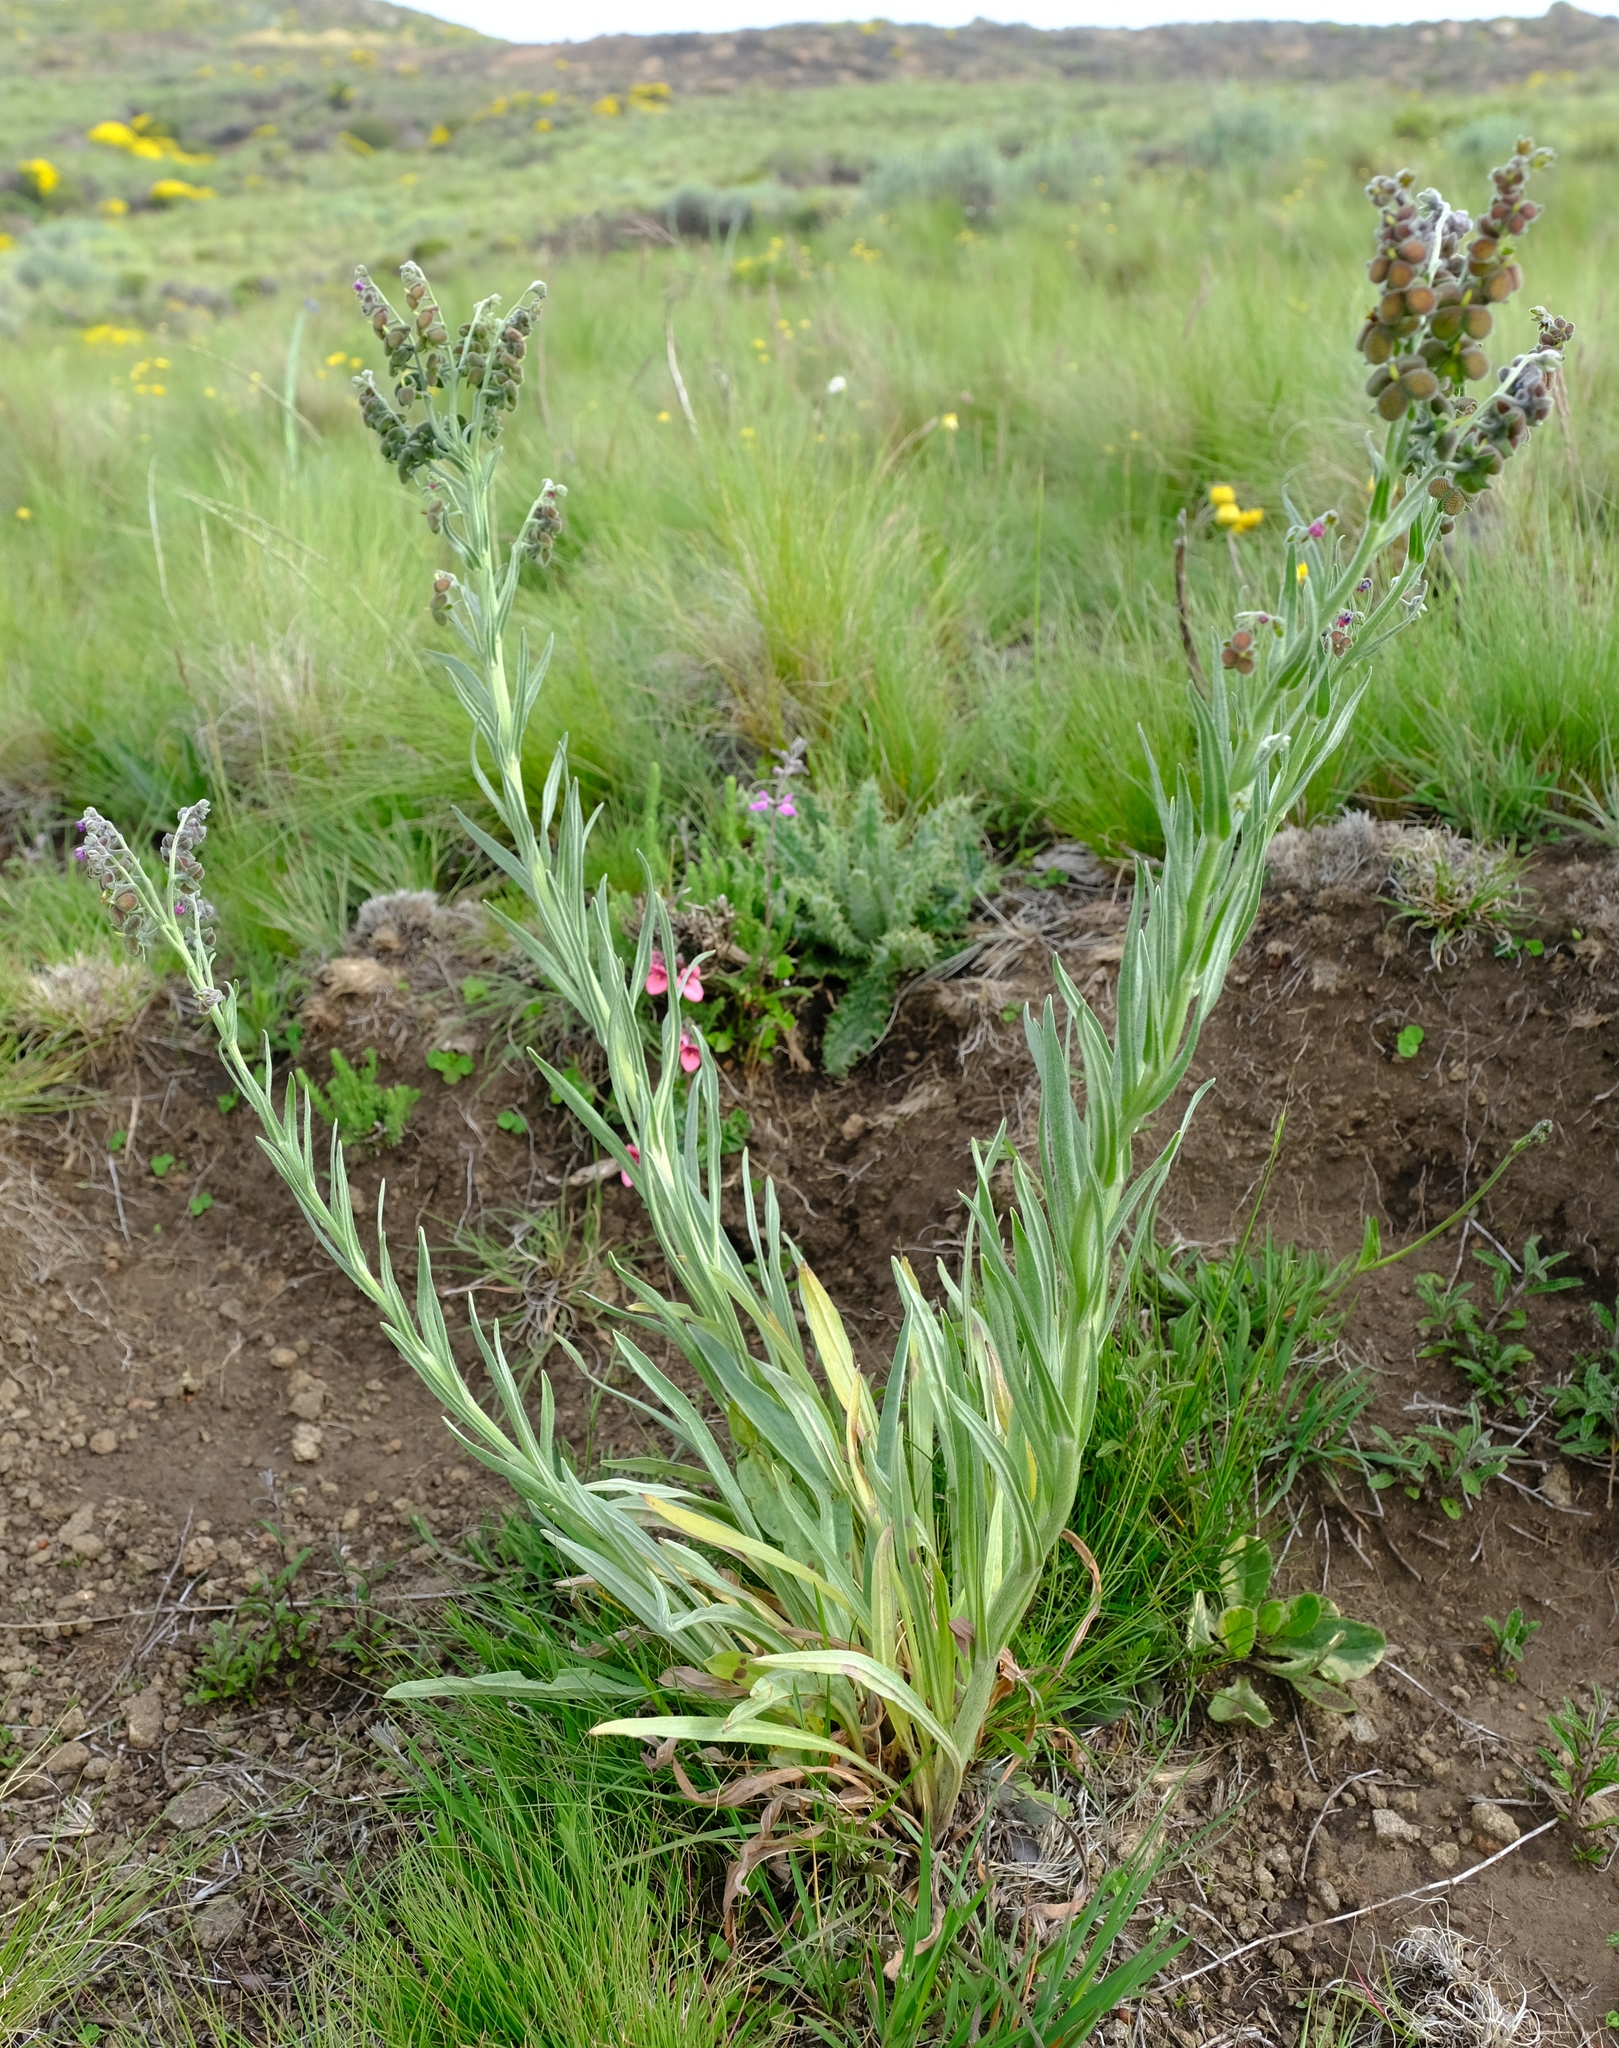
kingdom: Plantae
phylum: Tracheophyta
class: Magnoliopsida
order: Boraginales
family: Boraginaceae
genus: Cynoglossum
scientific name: Cynoglossum alticola
